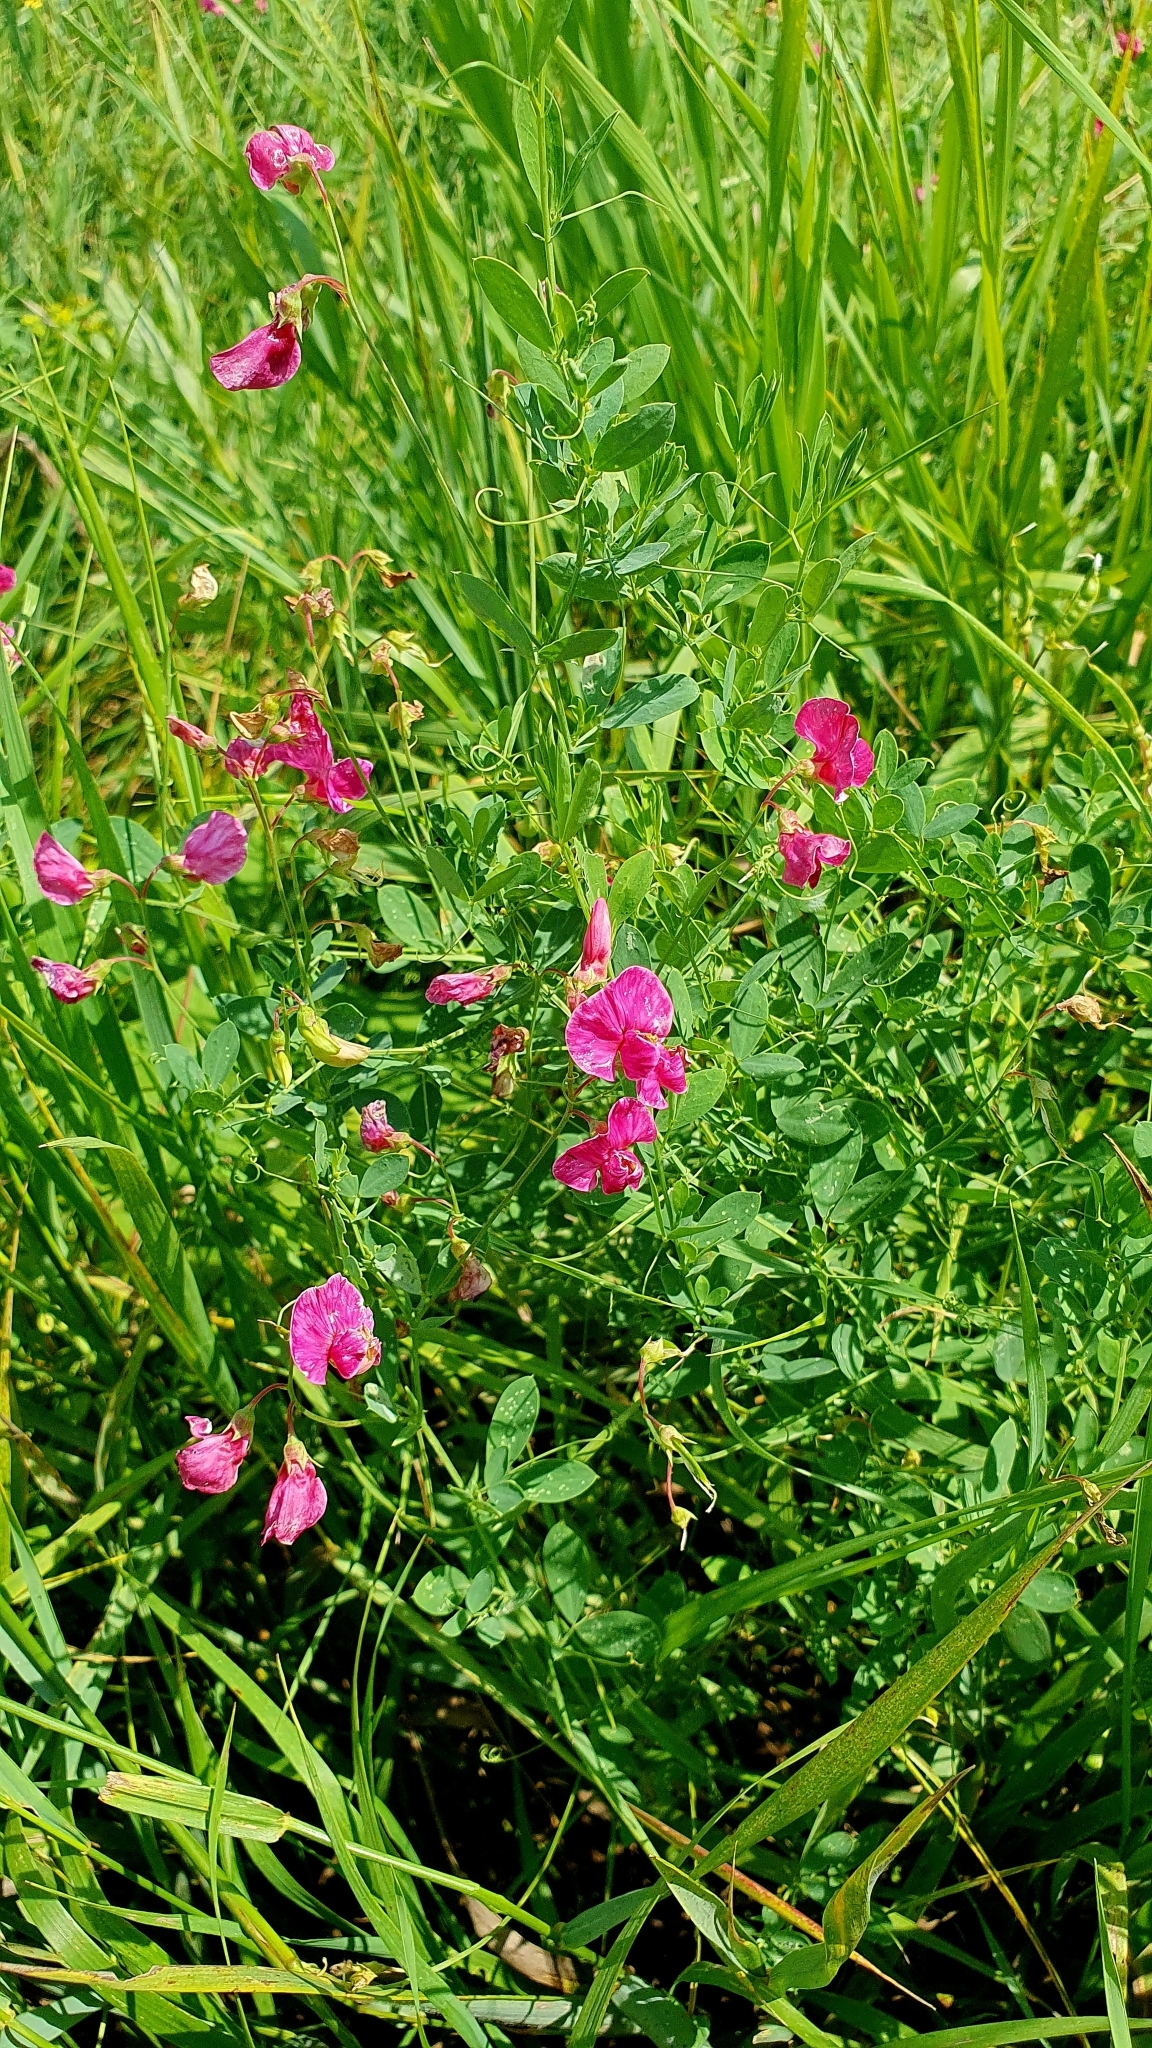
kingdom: Plantae
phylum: Tracheophyta
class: Magnoliopsida
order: Fabales
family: Fabaceae
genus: Lathyrus
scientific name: Lathyrus tuberosus
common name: Tuberous pea
